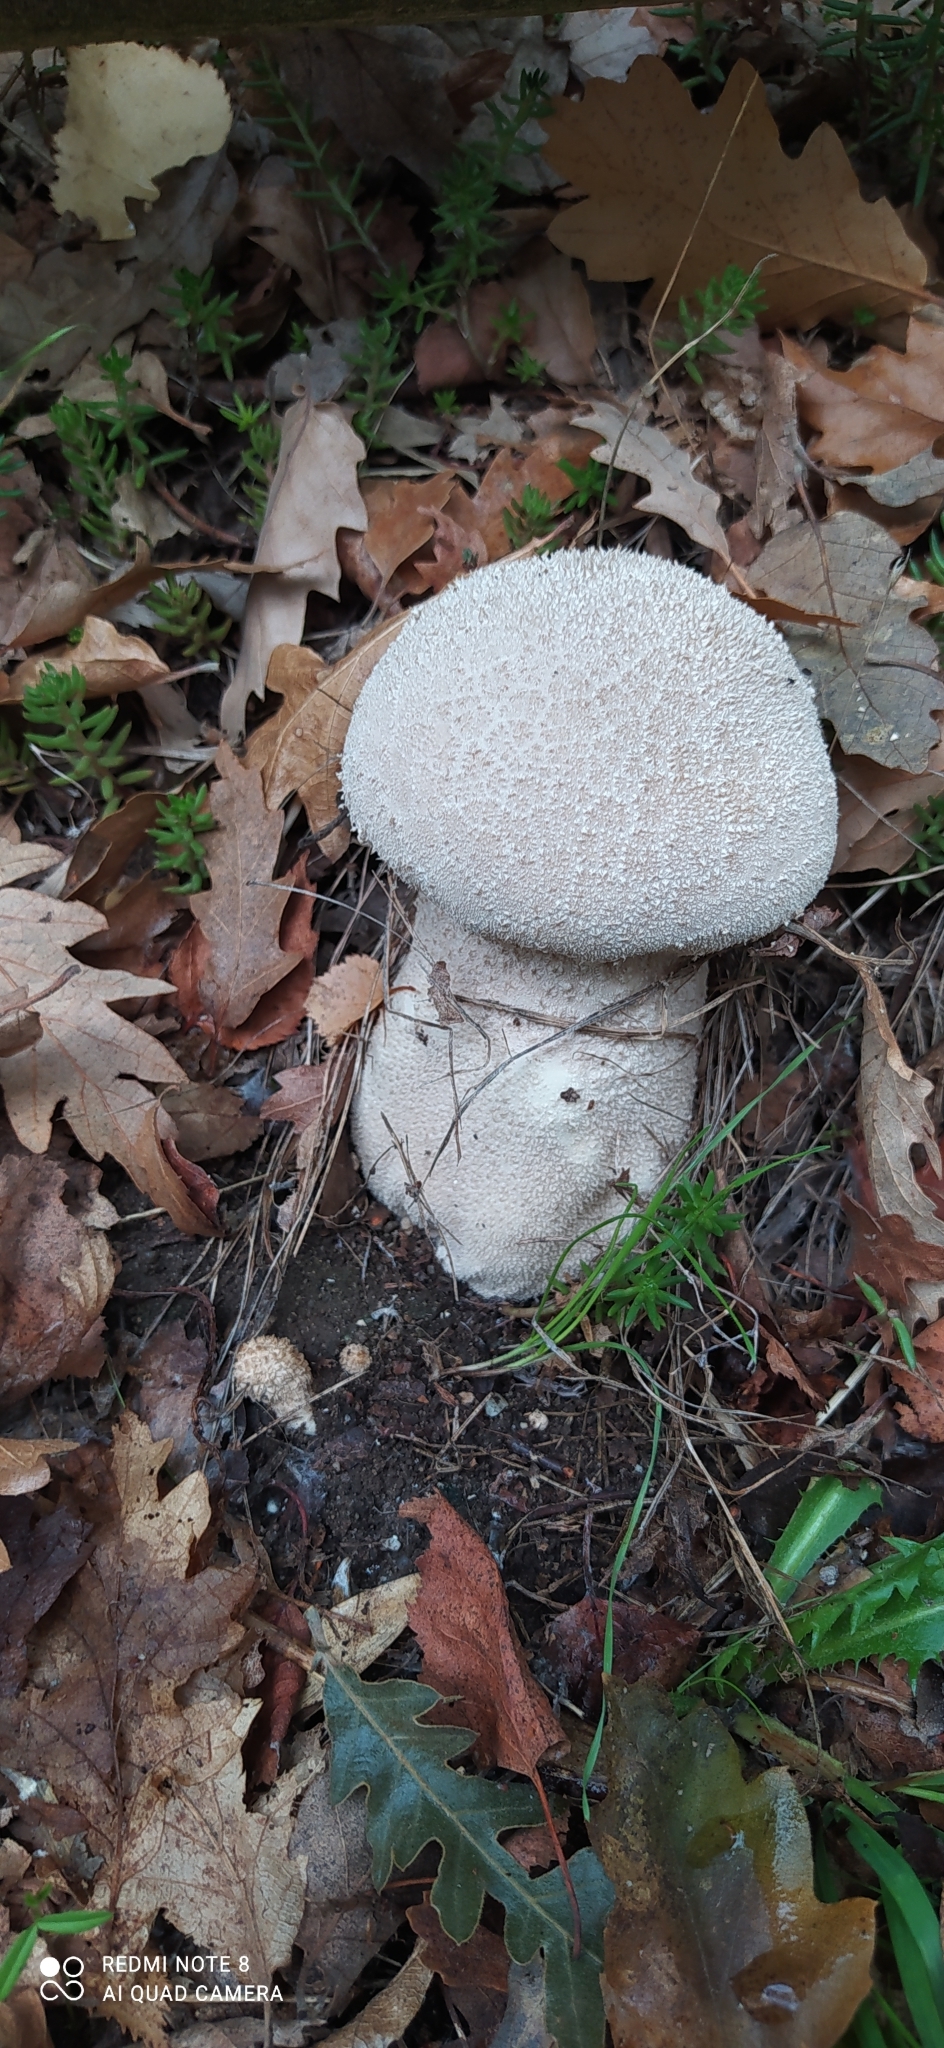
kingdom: Fungi
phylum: Basidiomycota
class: Agaricomycetes
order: Agaricales
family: Lycoperdaceae
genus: Lycoperdon
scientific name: Lycoperdon excipuliforme
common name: Pestle puffball
